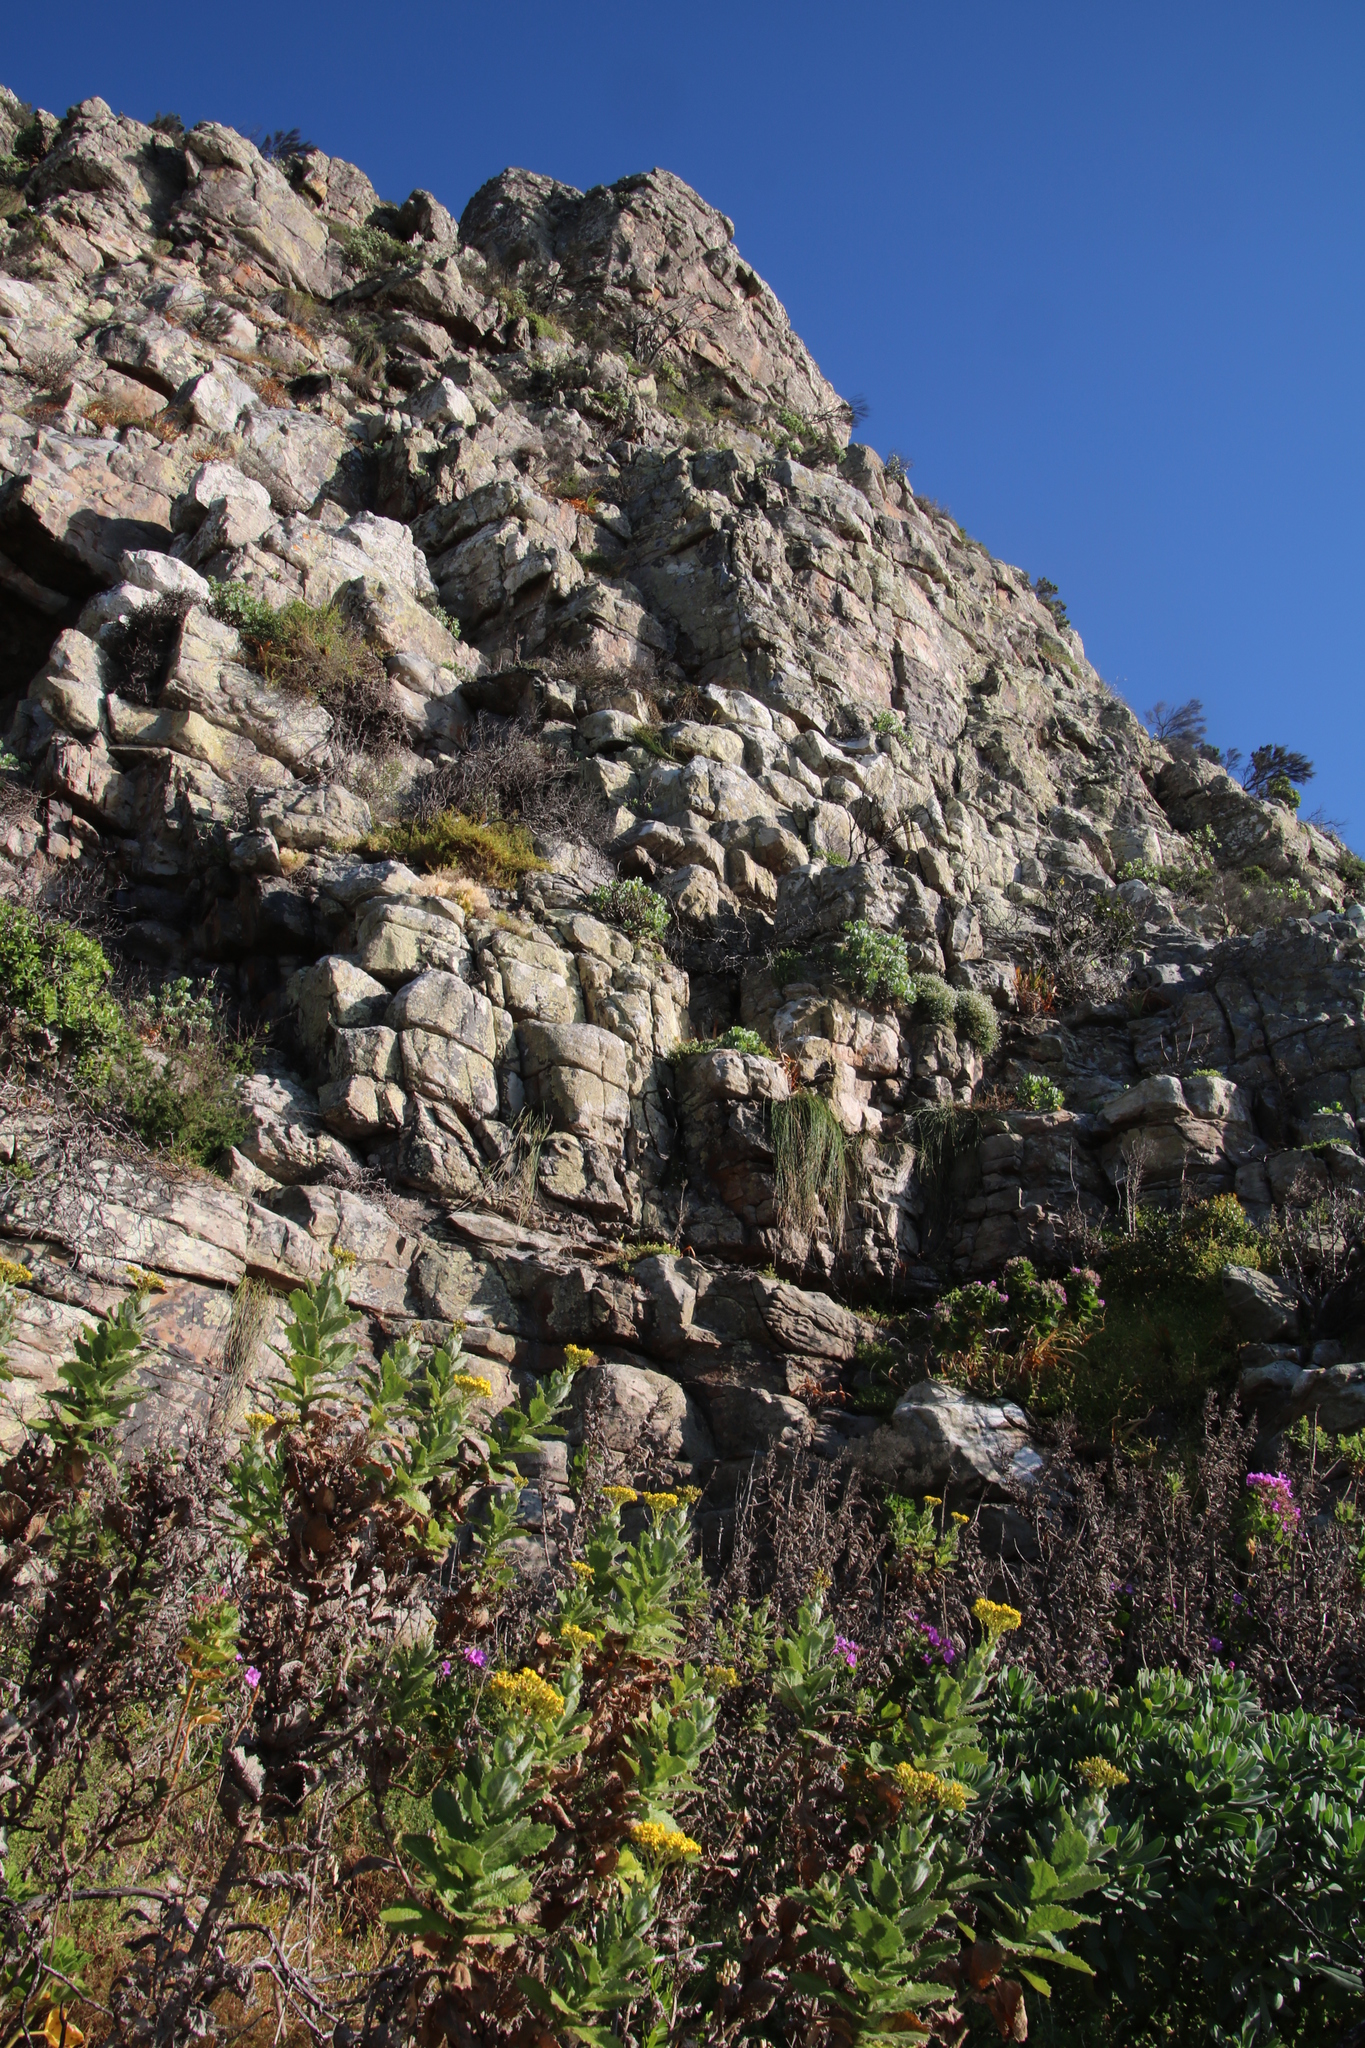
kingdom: Plantae
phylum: Tracheophyta
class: Liliopsida
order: Poales
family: Cyperaceae
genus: Ficinia
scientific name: Ficinia brevifolia
